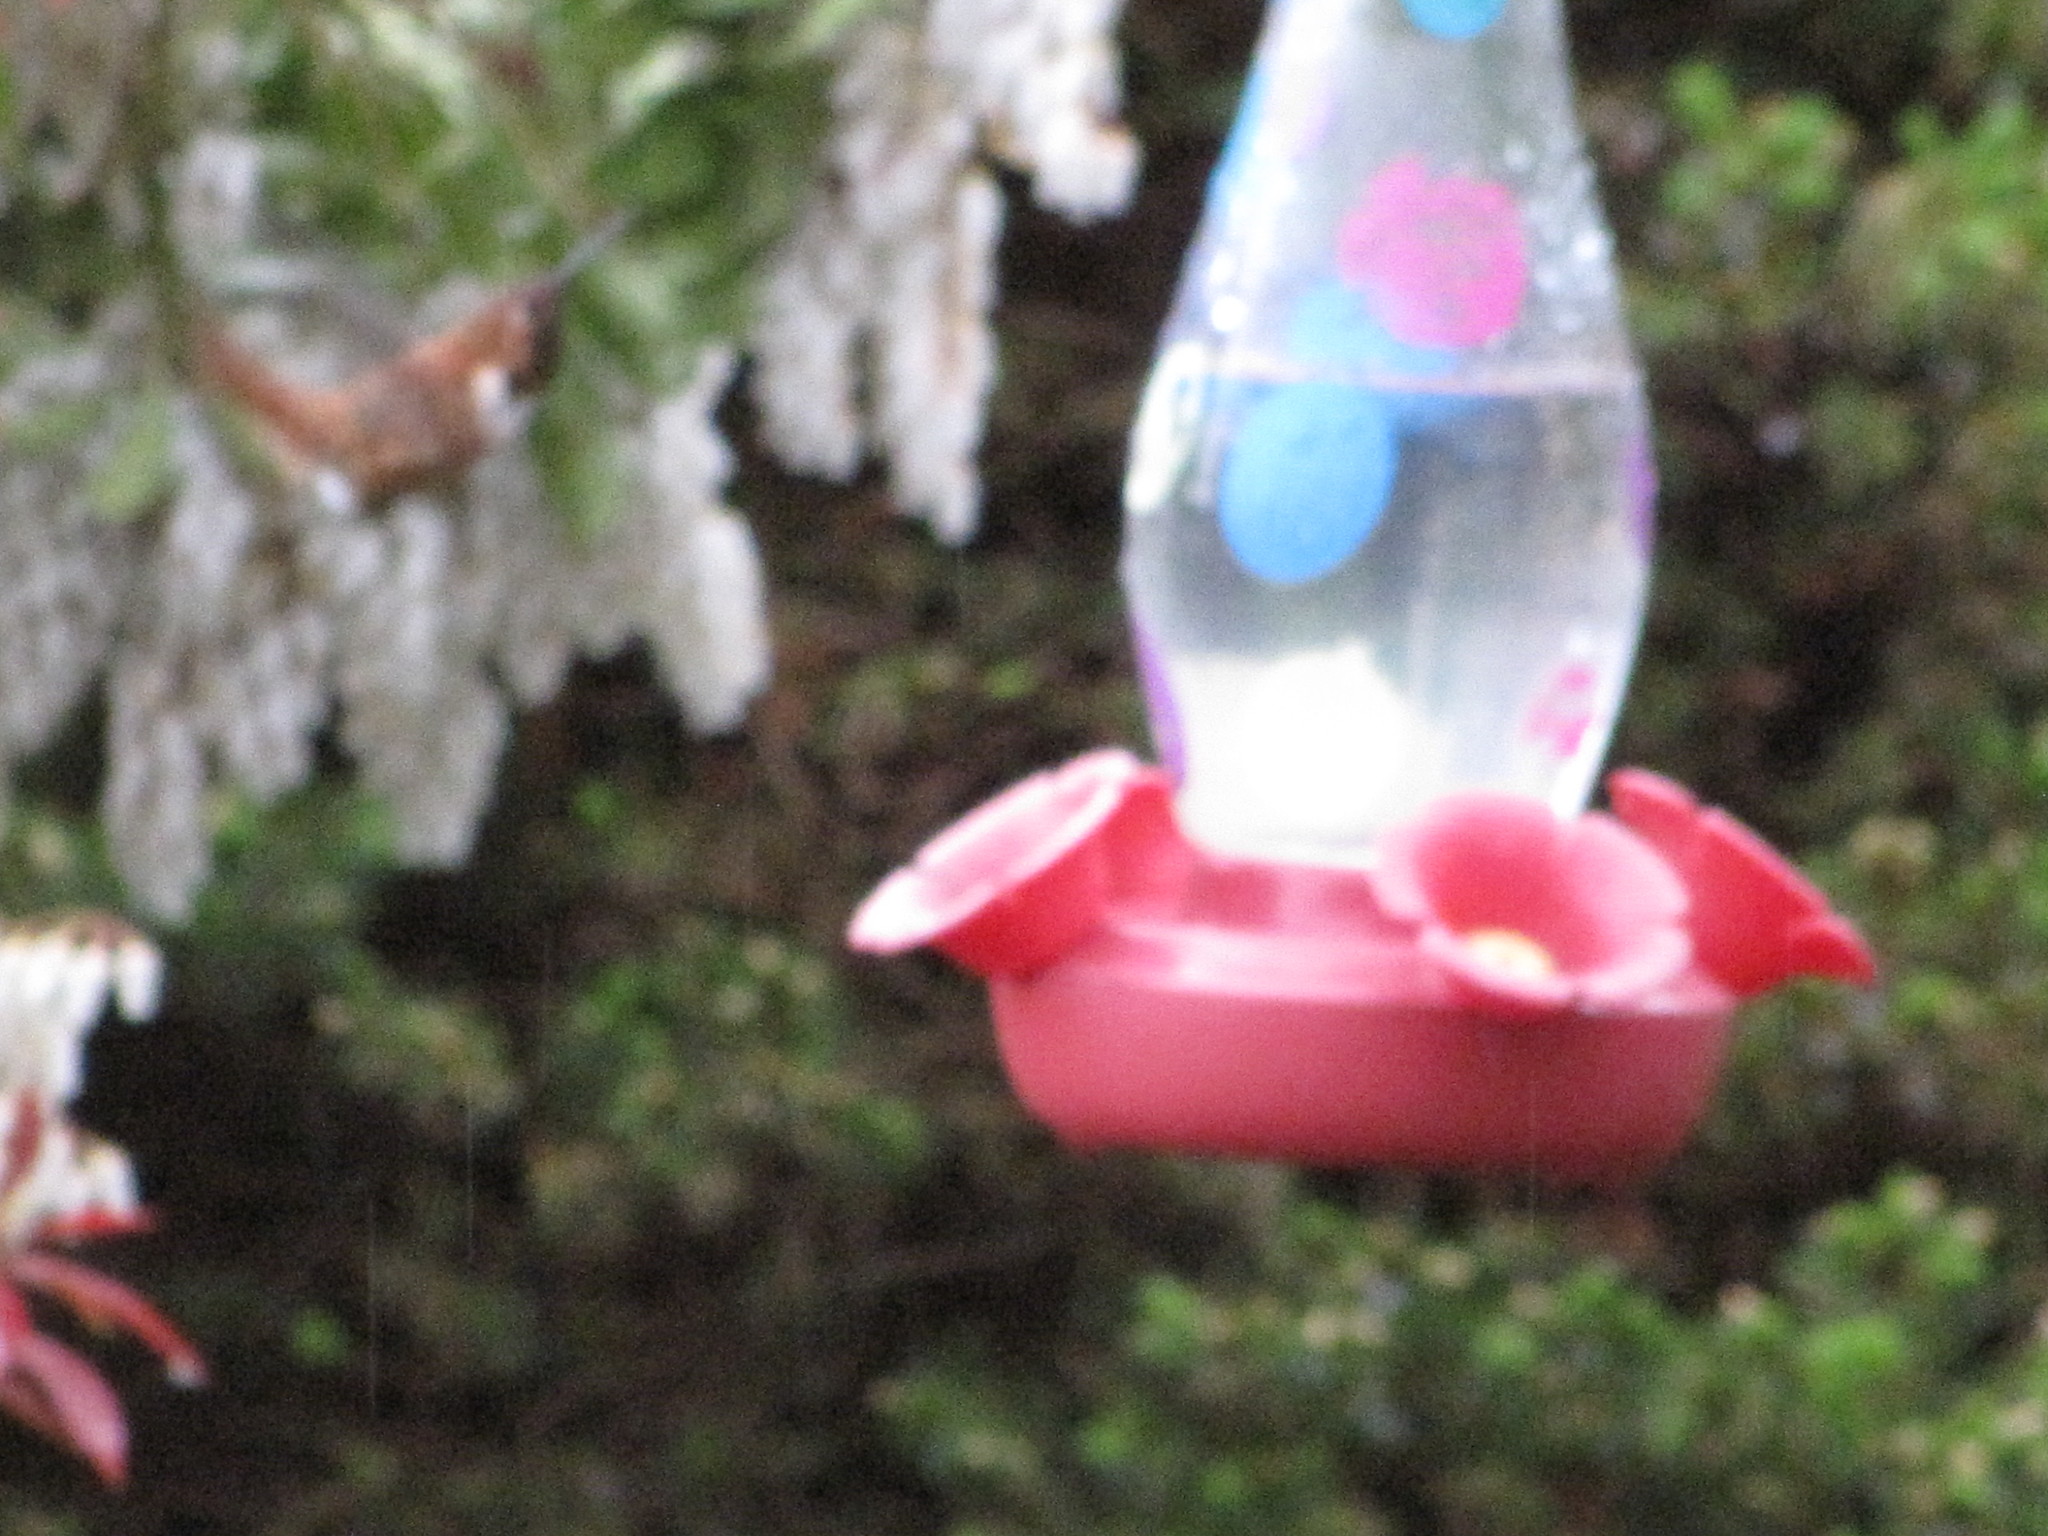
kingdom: Animalia
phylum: Chordata
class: Aves
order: Apodiformes
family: Trochilidae
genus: Selasphorus
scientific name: Selasphorus rufus
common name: Rufous hummingbird
